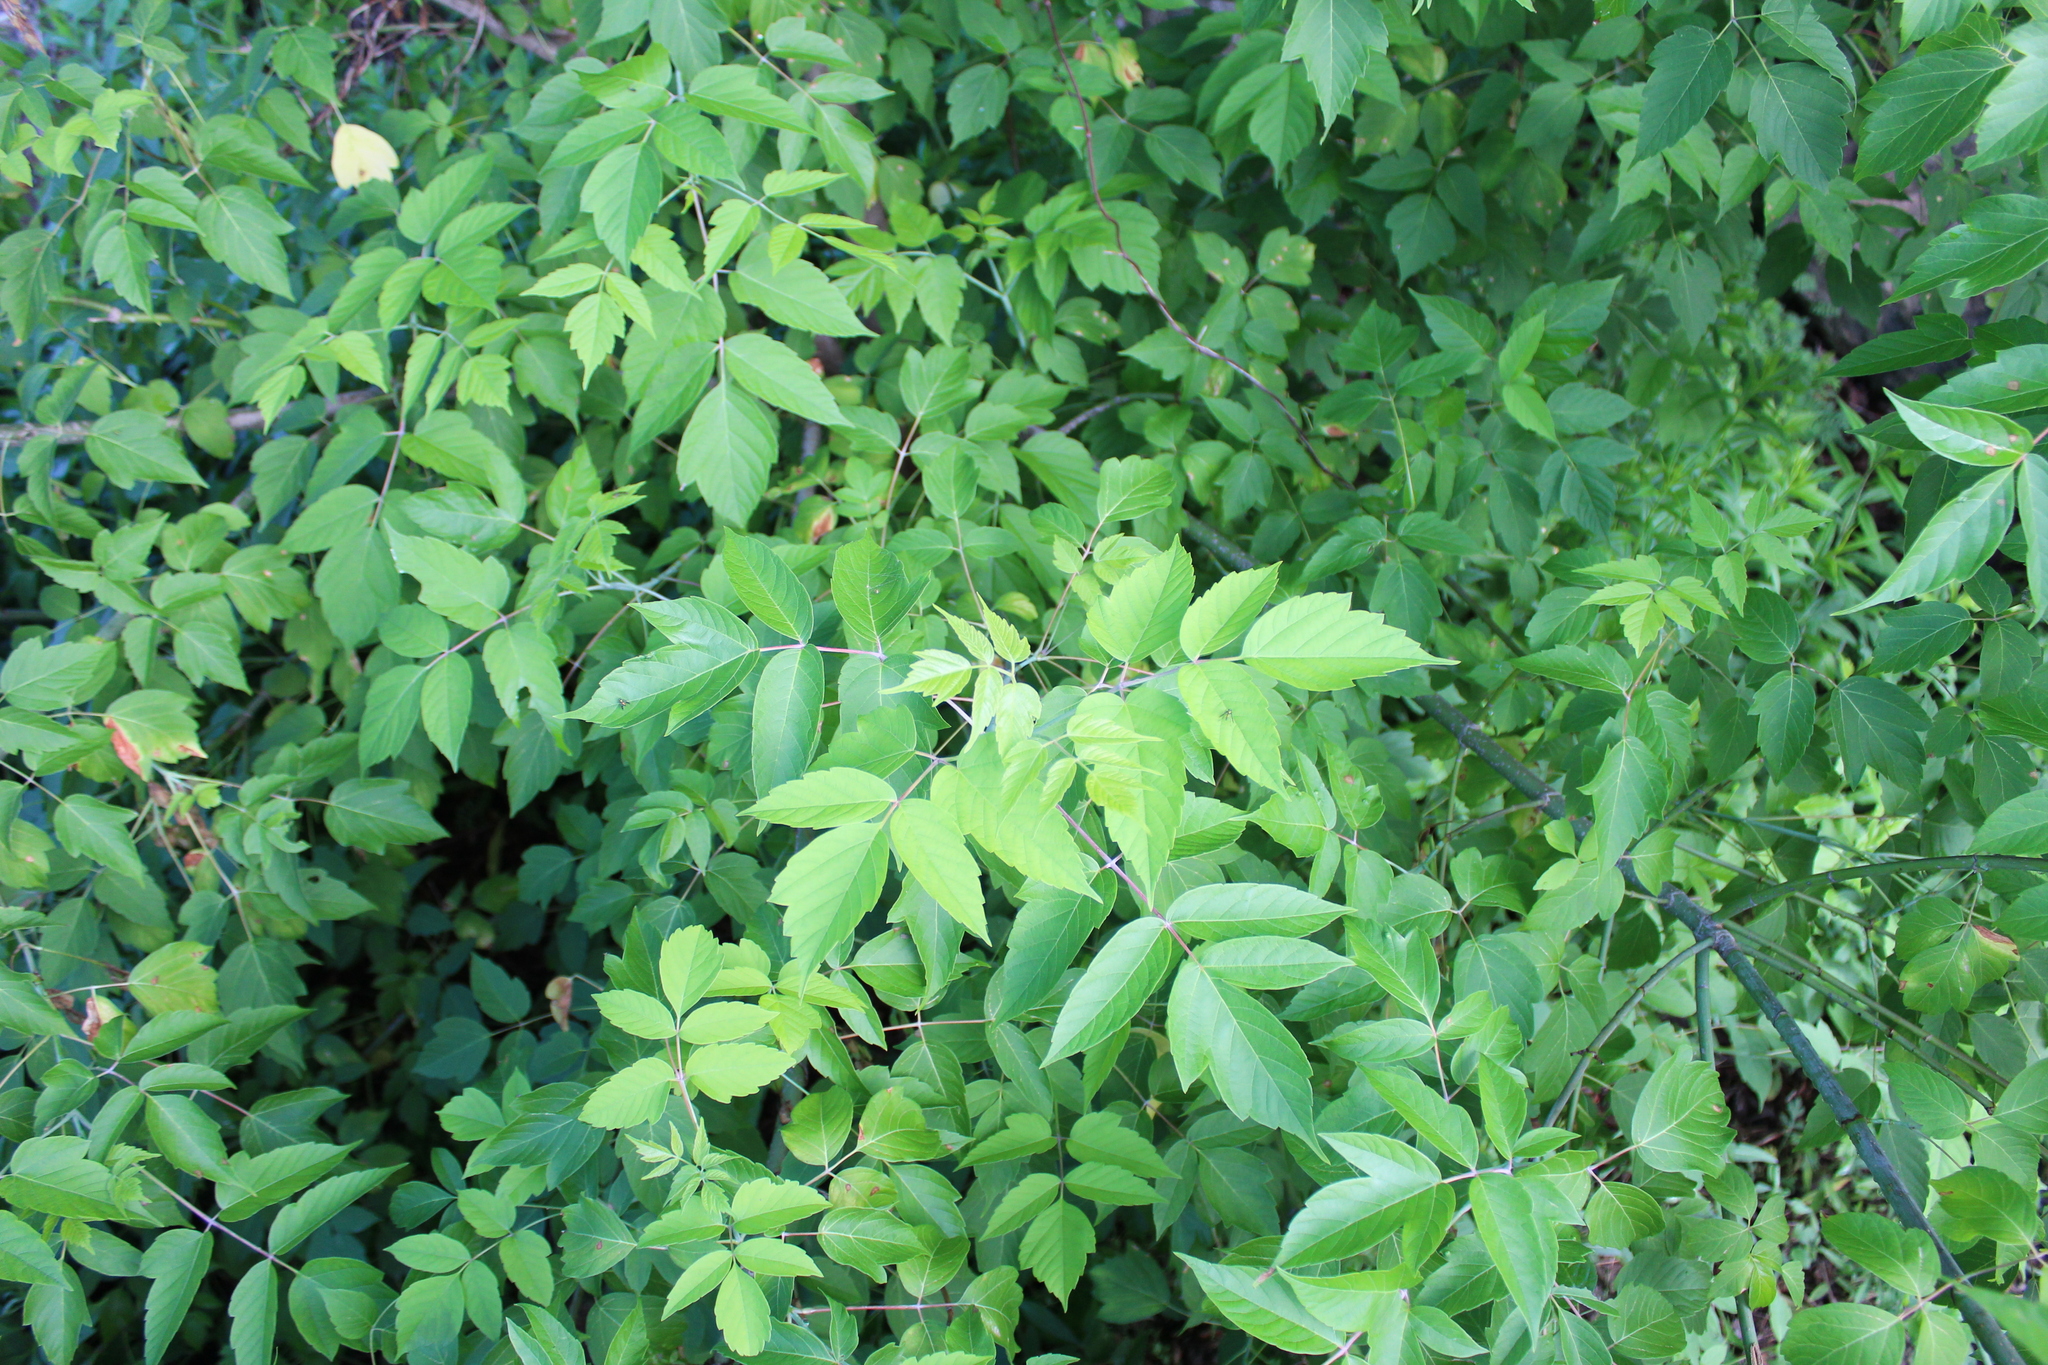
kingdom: Plantae
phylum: Tracheophyta
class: Magnoliopsida
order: Sapindales
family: Sapindaceae
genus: Acer
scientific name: Acer negundo
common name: Ashleaf maple
